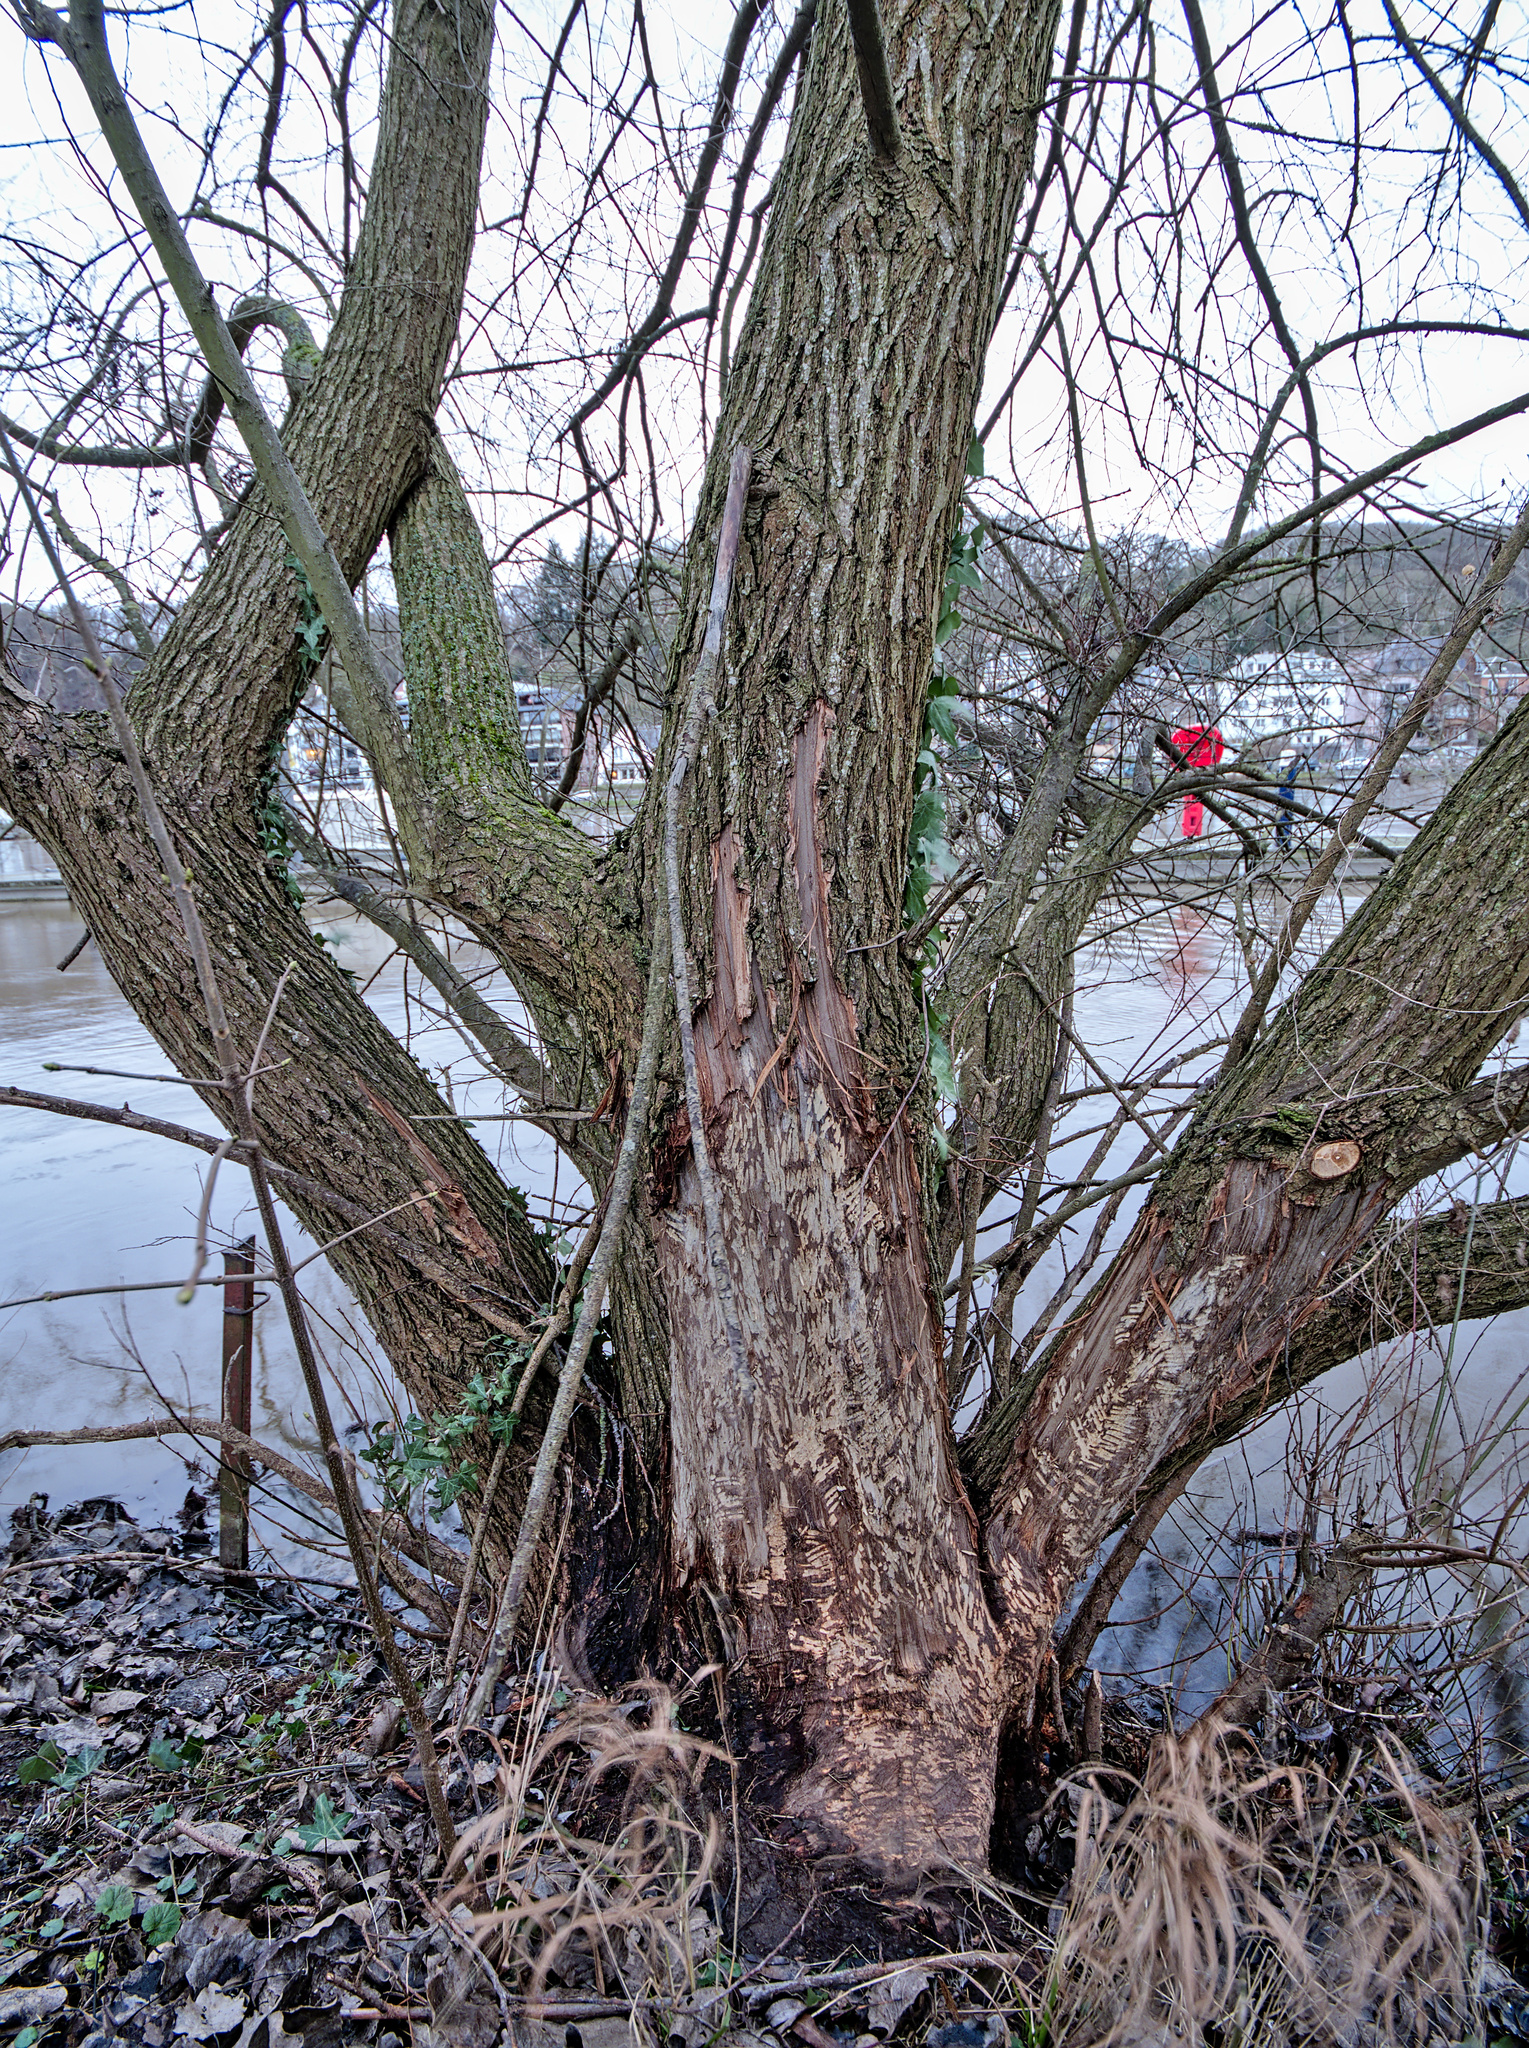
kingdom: Animalia
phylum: Chordata
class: Mammalia
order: Rodentia
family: Castoridae
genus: Castor
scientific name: Castor fiber
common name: Eurasian beaver
